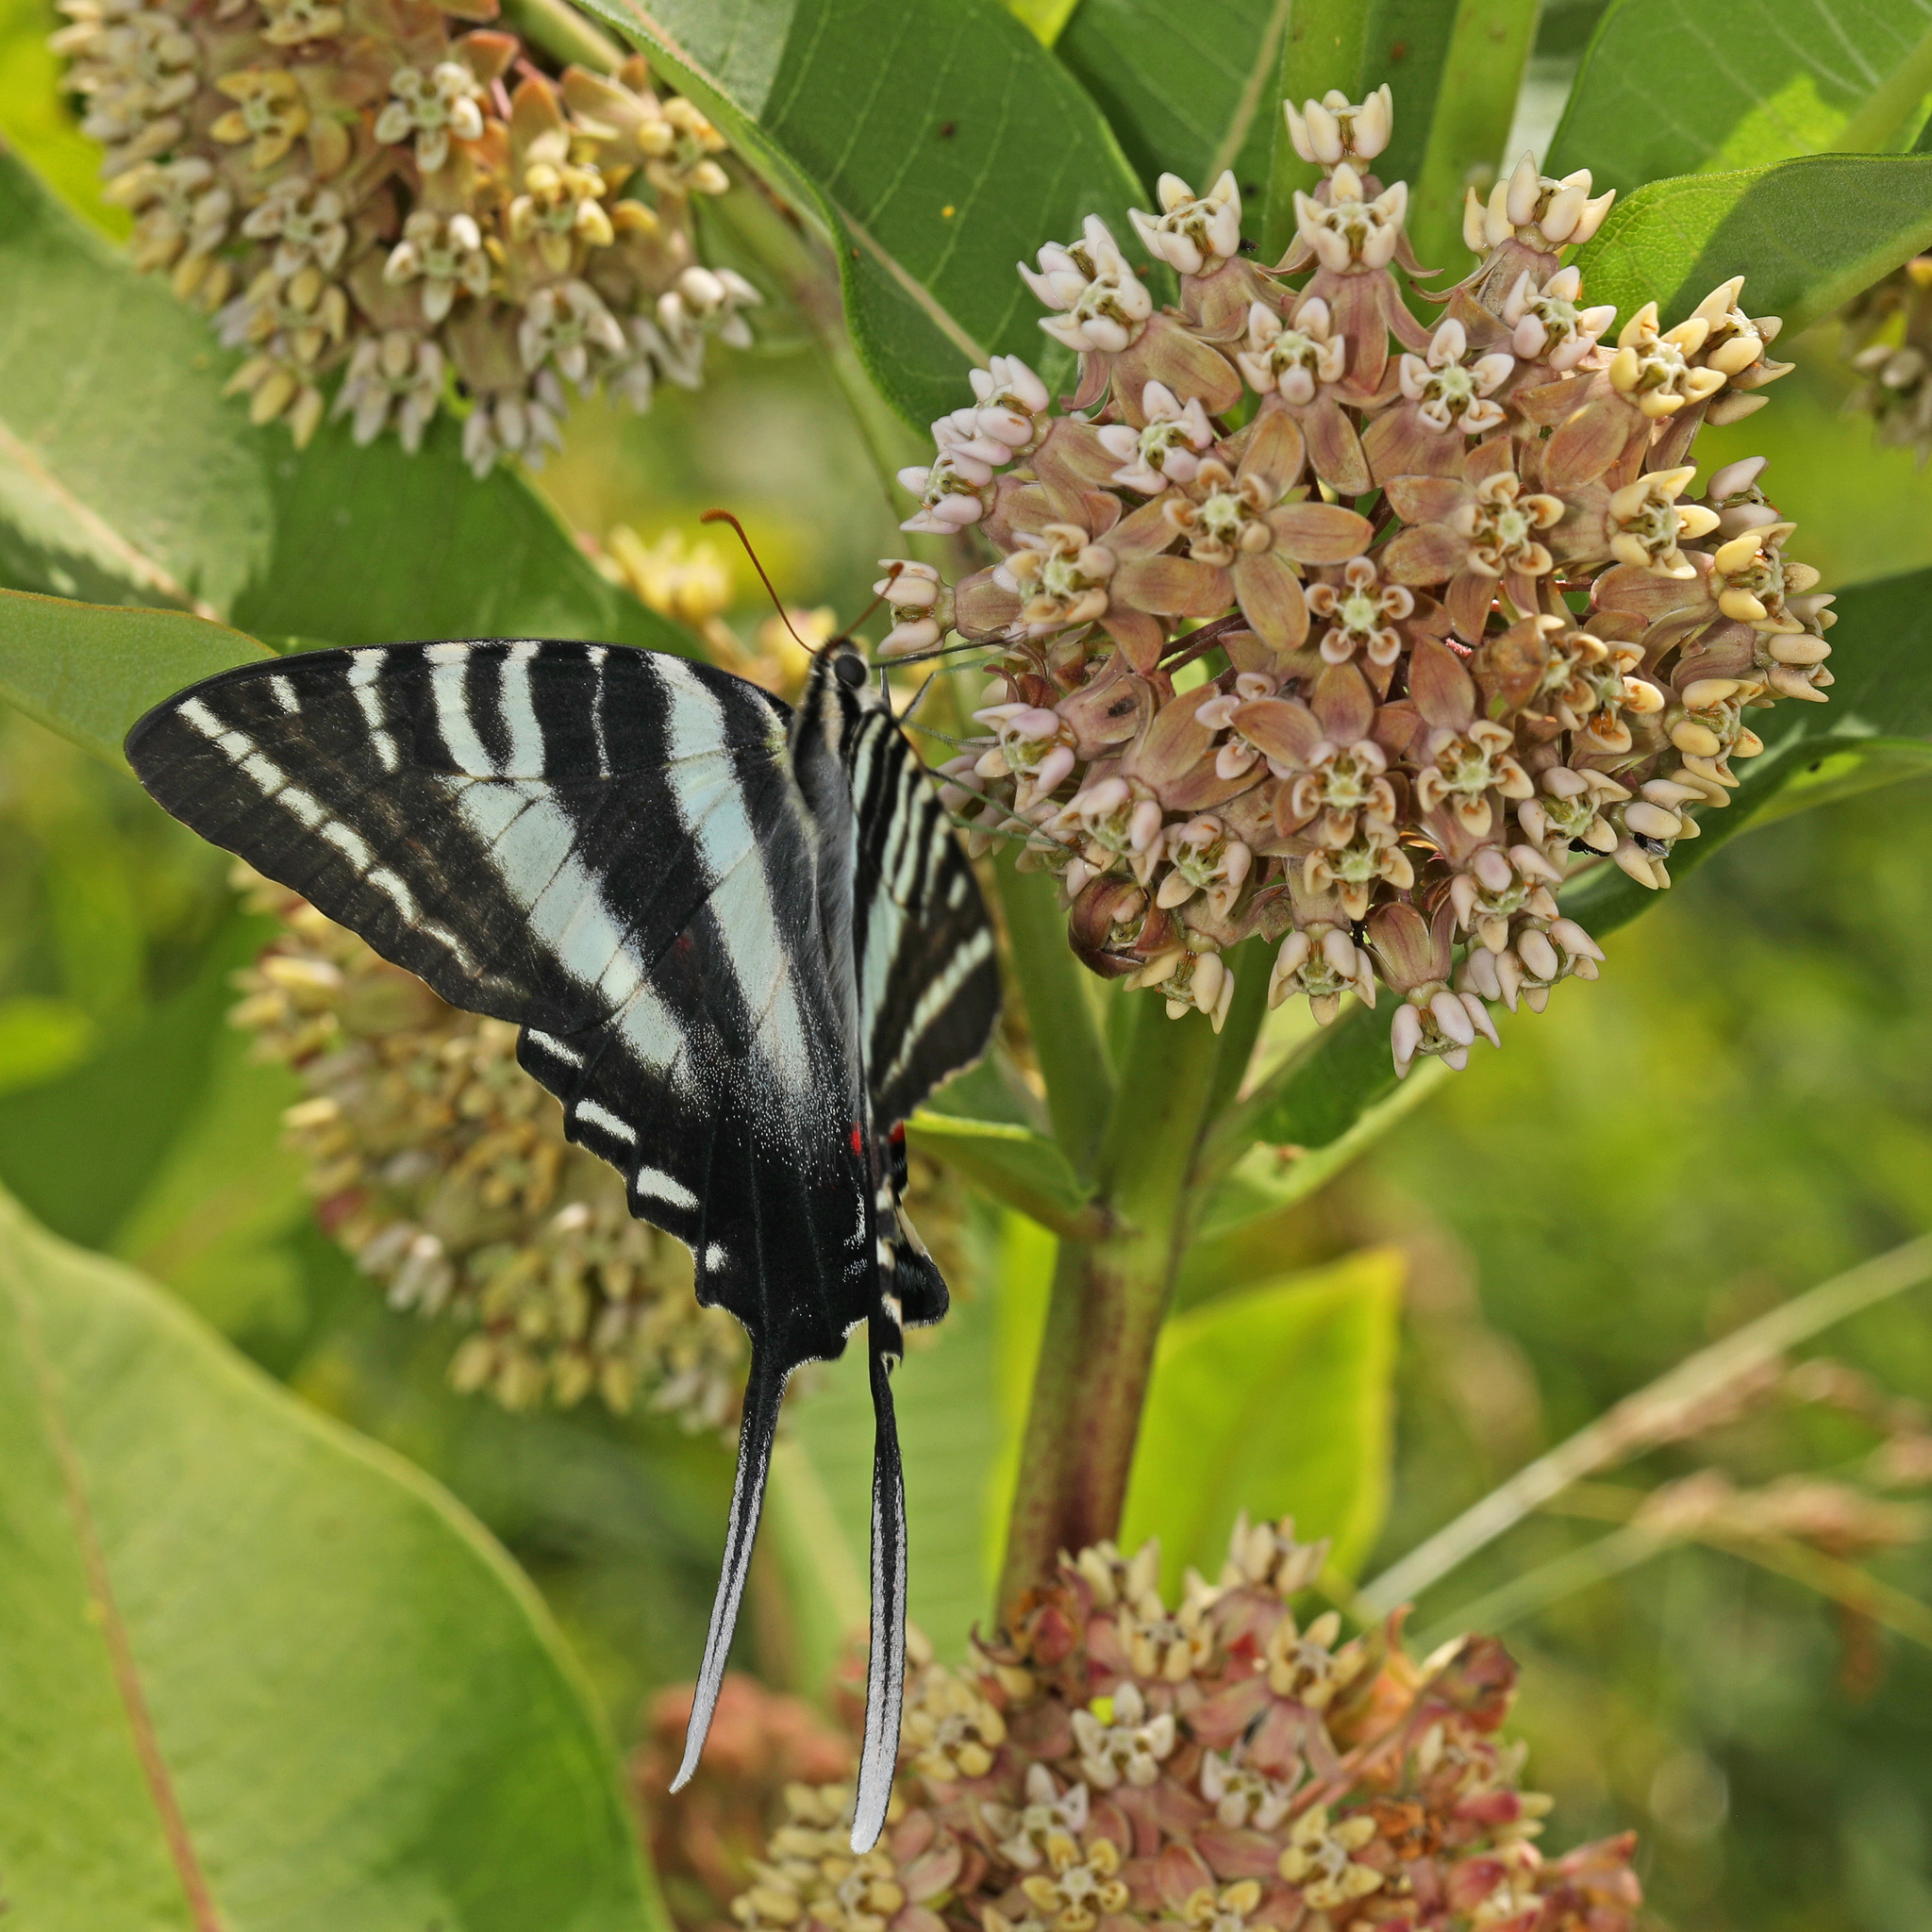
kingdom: Animalia
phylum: Arthropoda
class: Insecta
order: Lepidoptera
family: Papilionidae
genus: Protographium
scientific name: Protographium marcellus
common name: Zebra swallowtail
